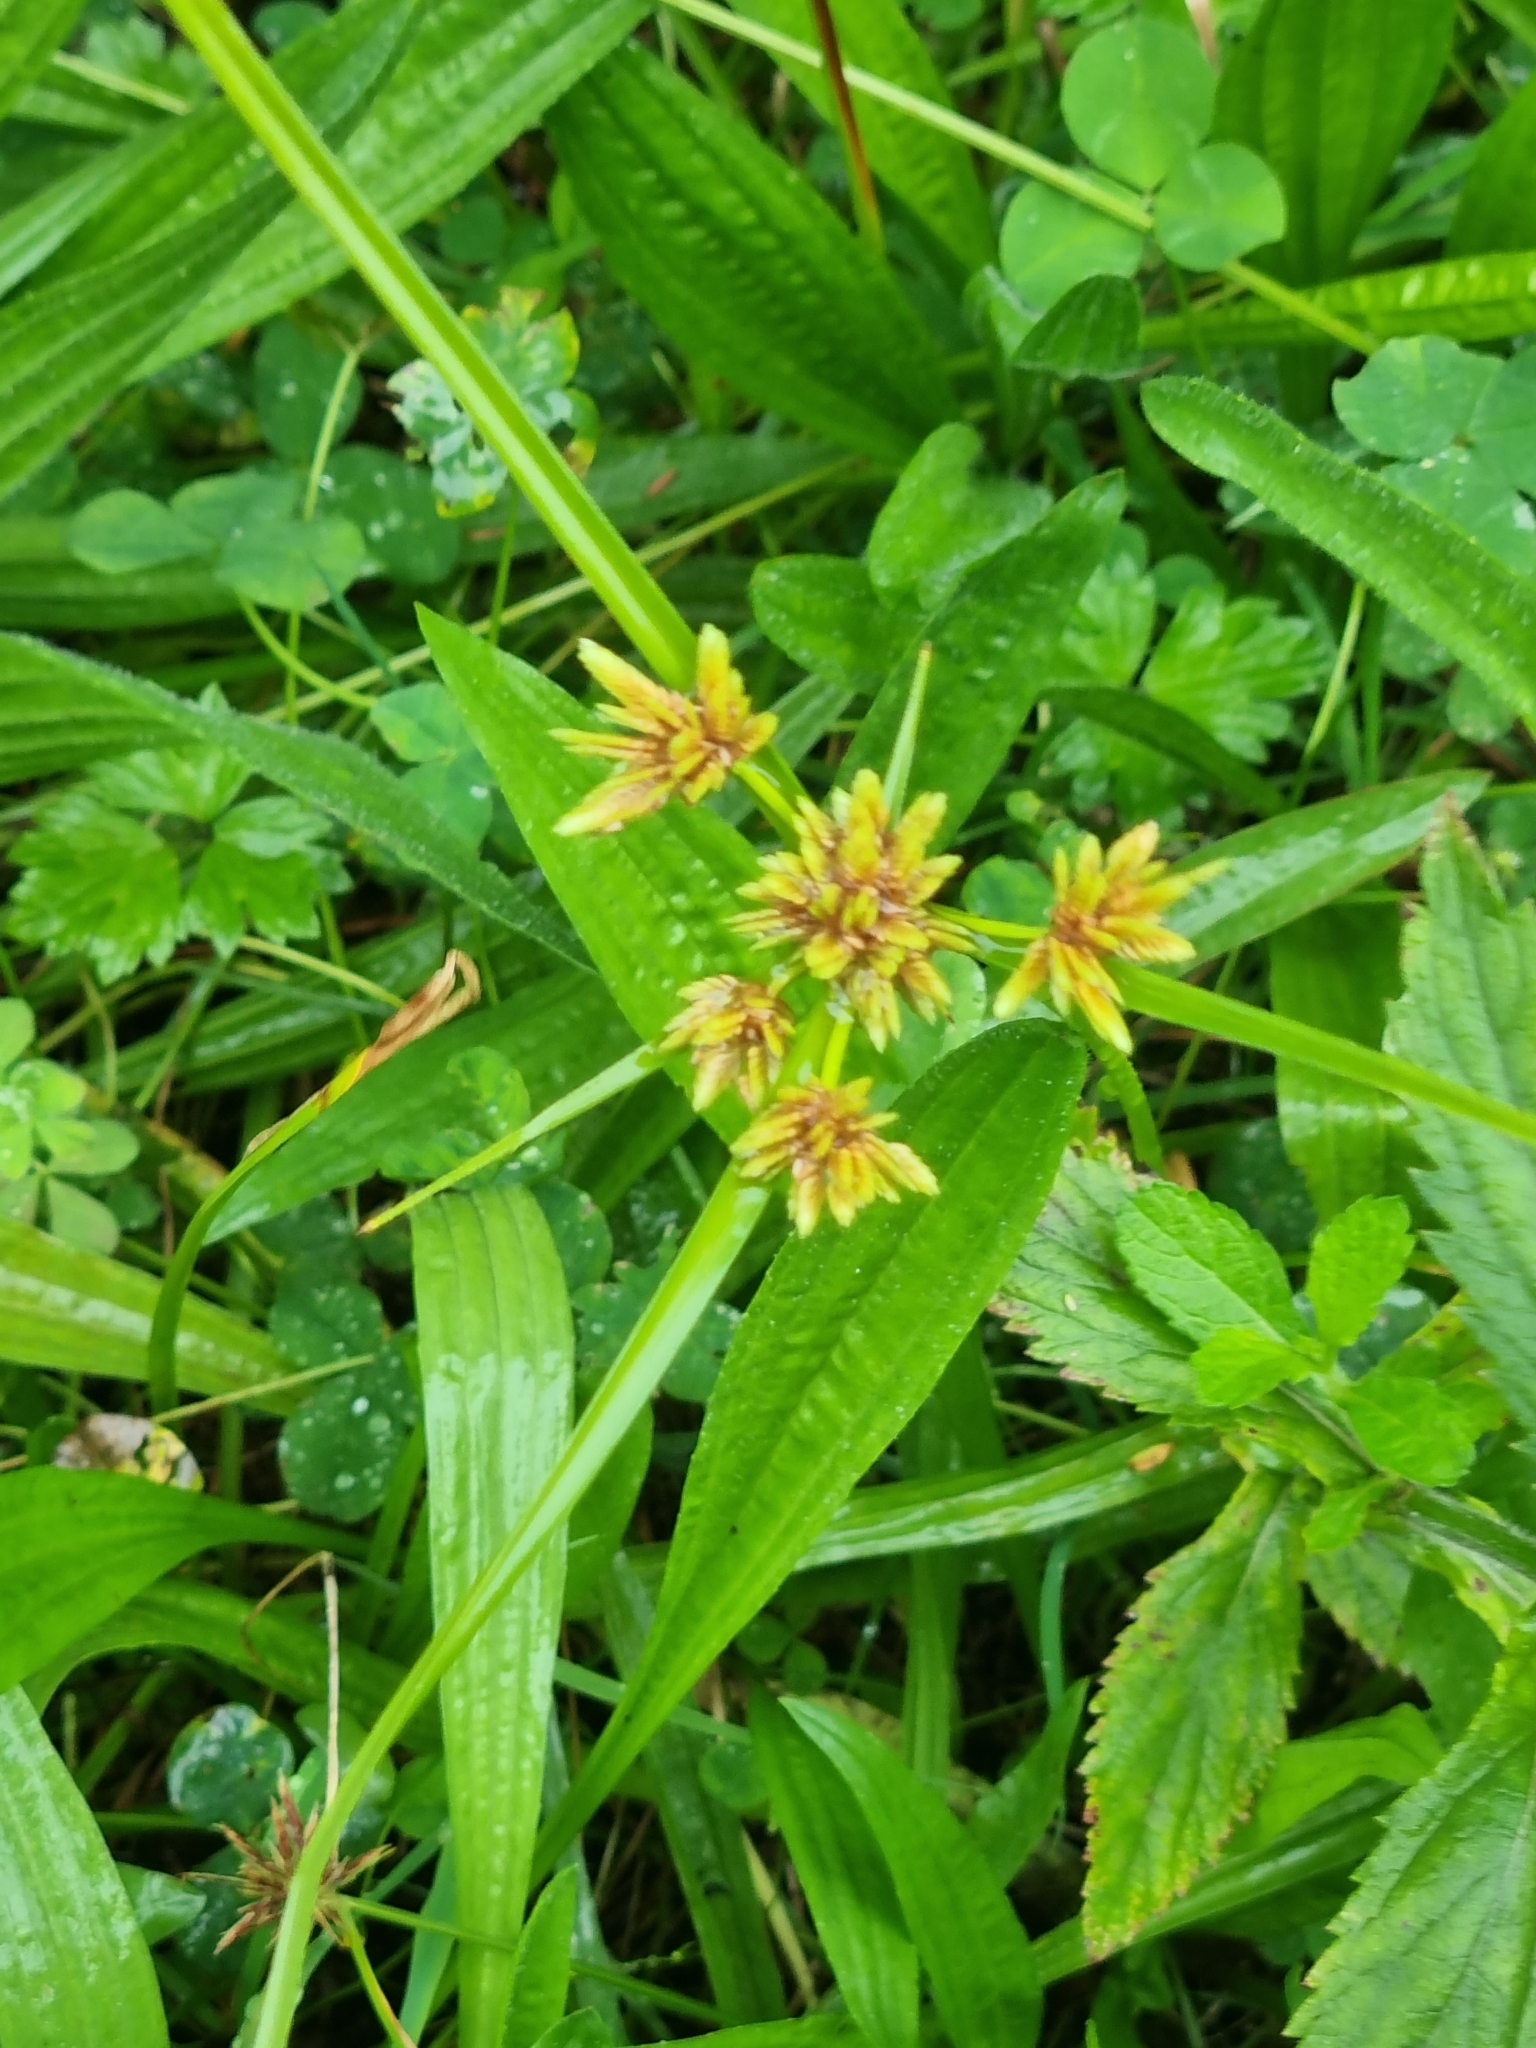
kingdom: Plantae
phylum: Tracheophyta
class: Liliopsida
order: Poales
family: Cyperaceae
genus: Cyperus
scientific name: Cyperus eragrostis
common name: Tall flatsedge
